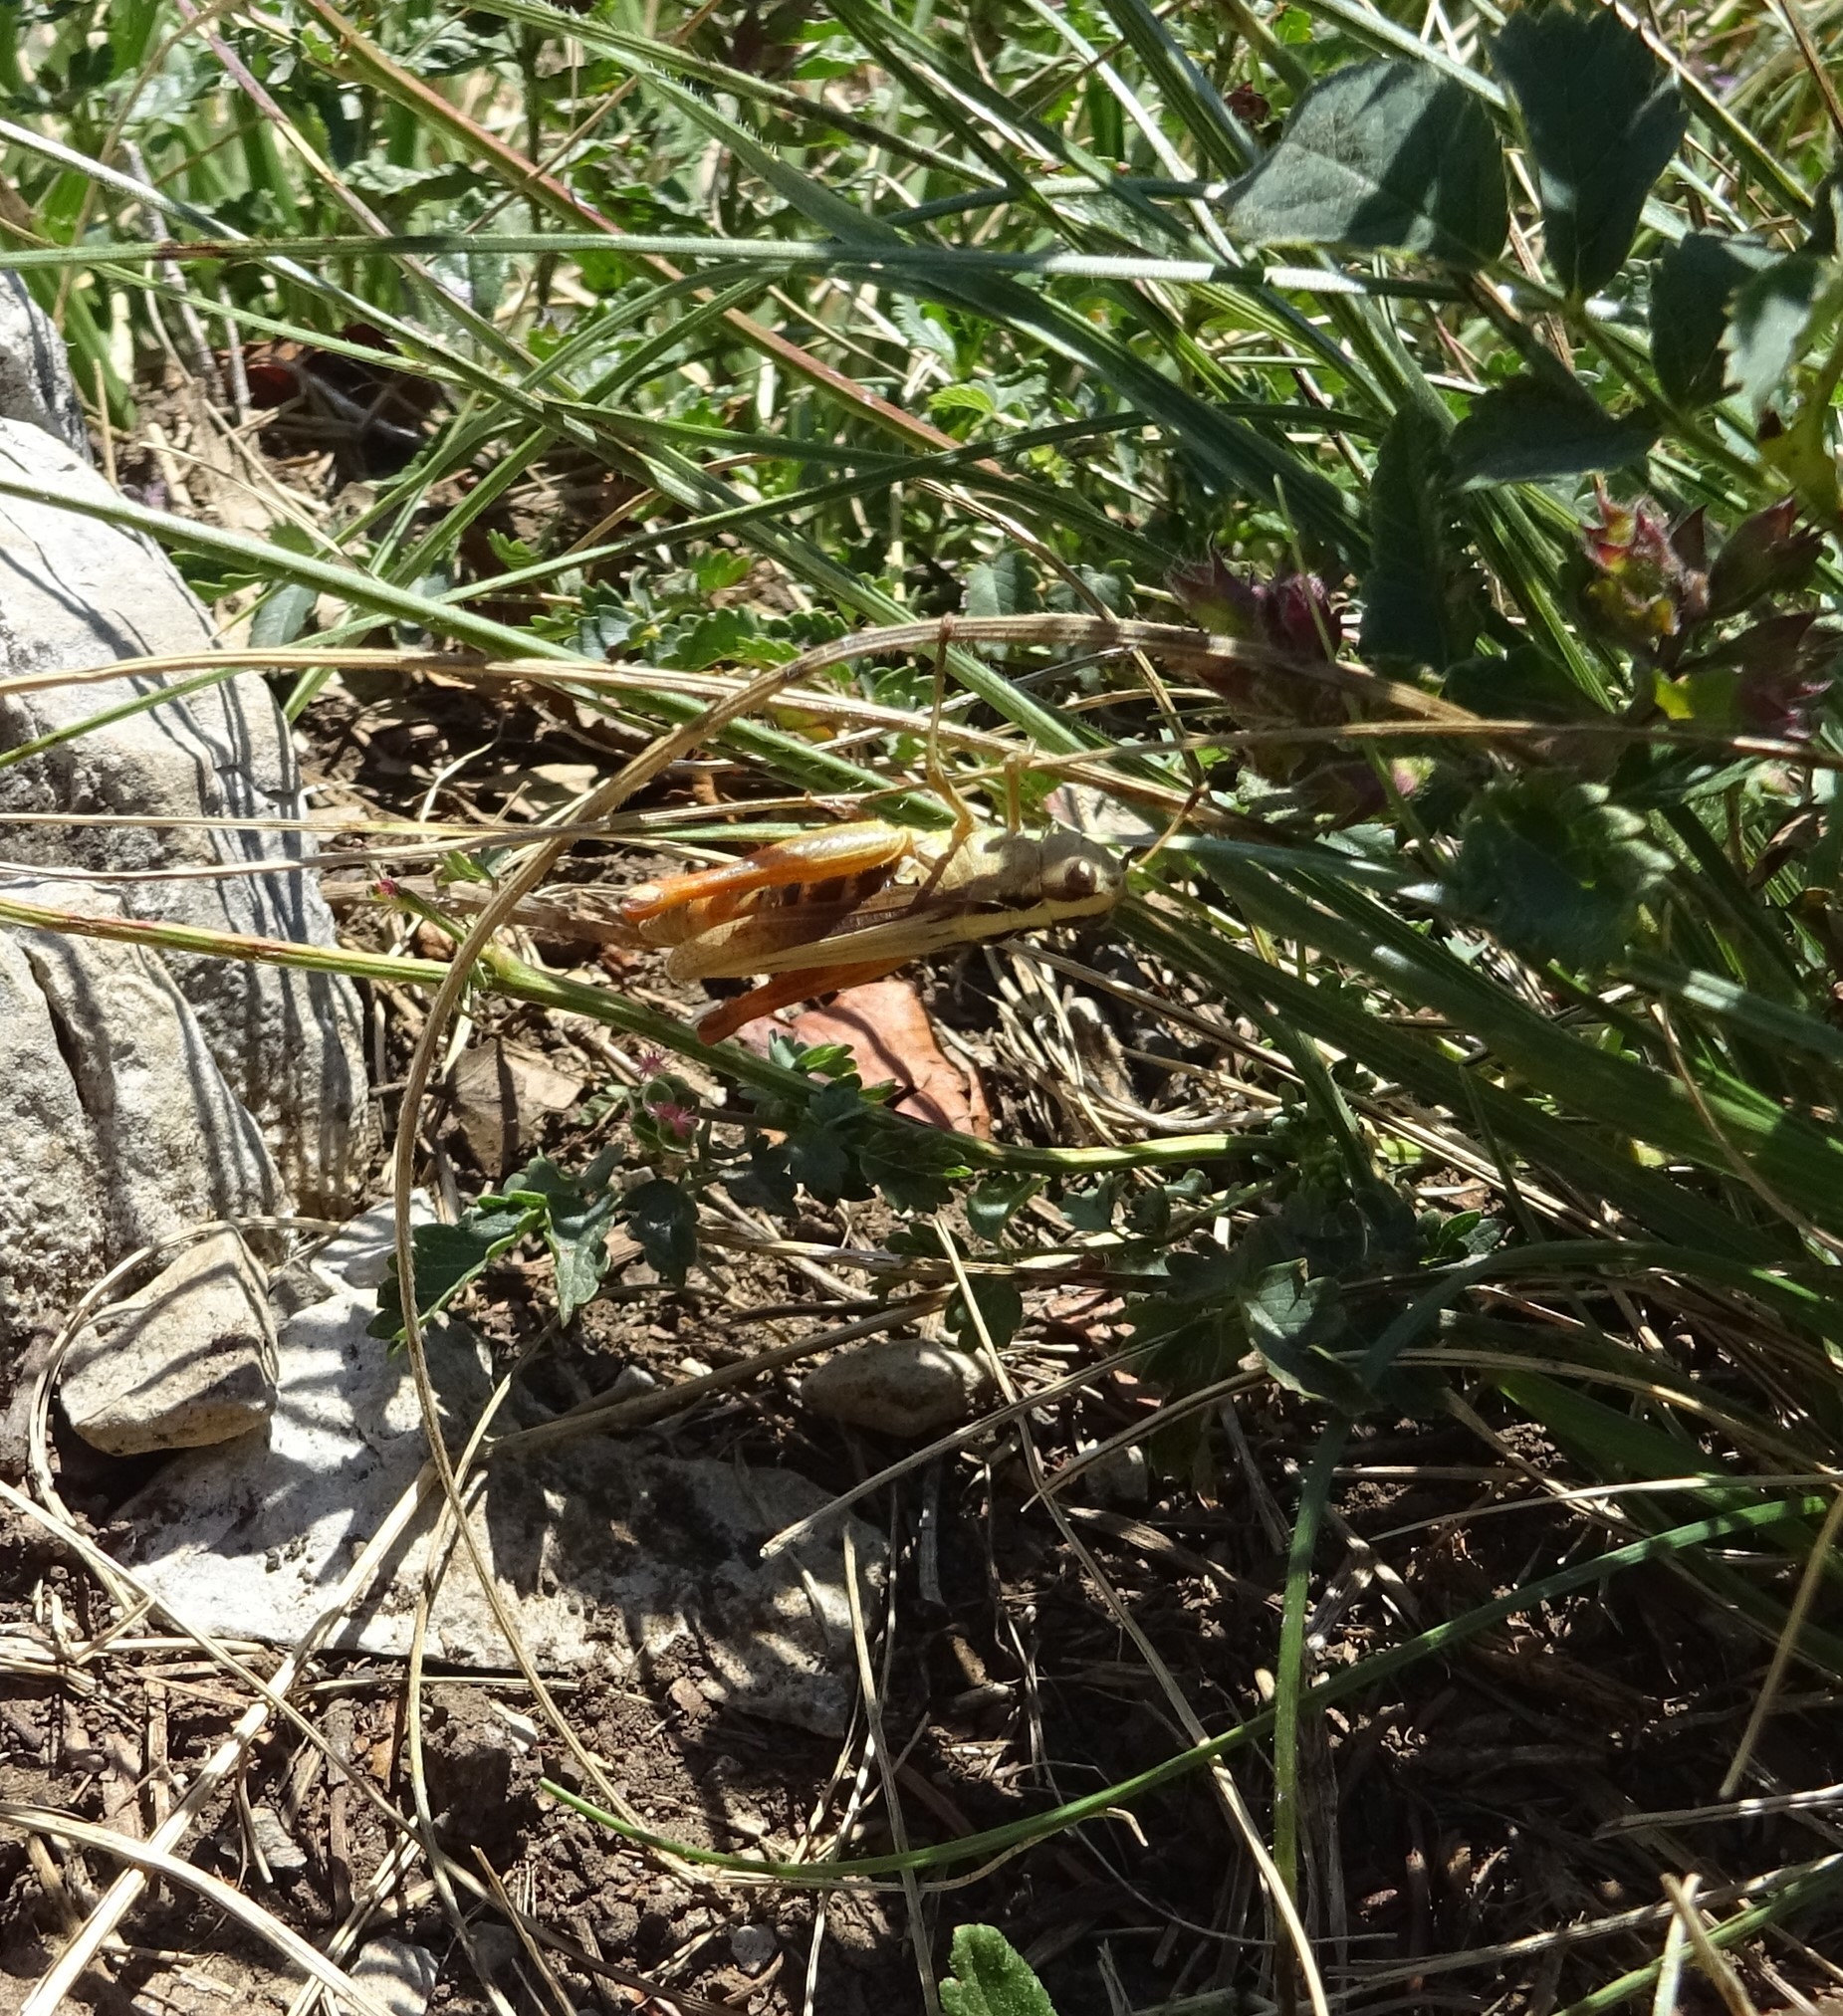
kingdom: Animalia
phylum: Arthropoda
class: Insecta
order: Orthoptera
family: Acrididae
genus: Gomphocerippus
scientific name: Gomphocerippus rufus
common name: Rufous grasshopper
